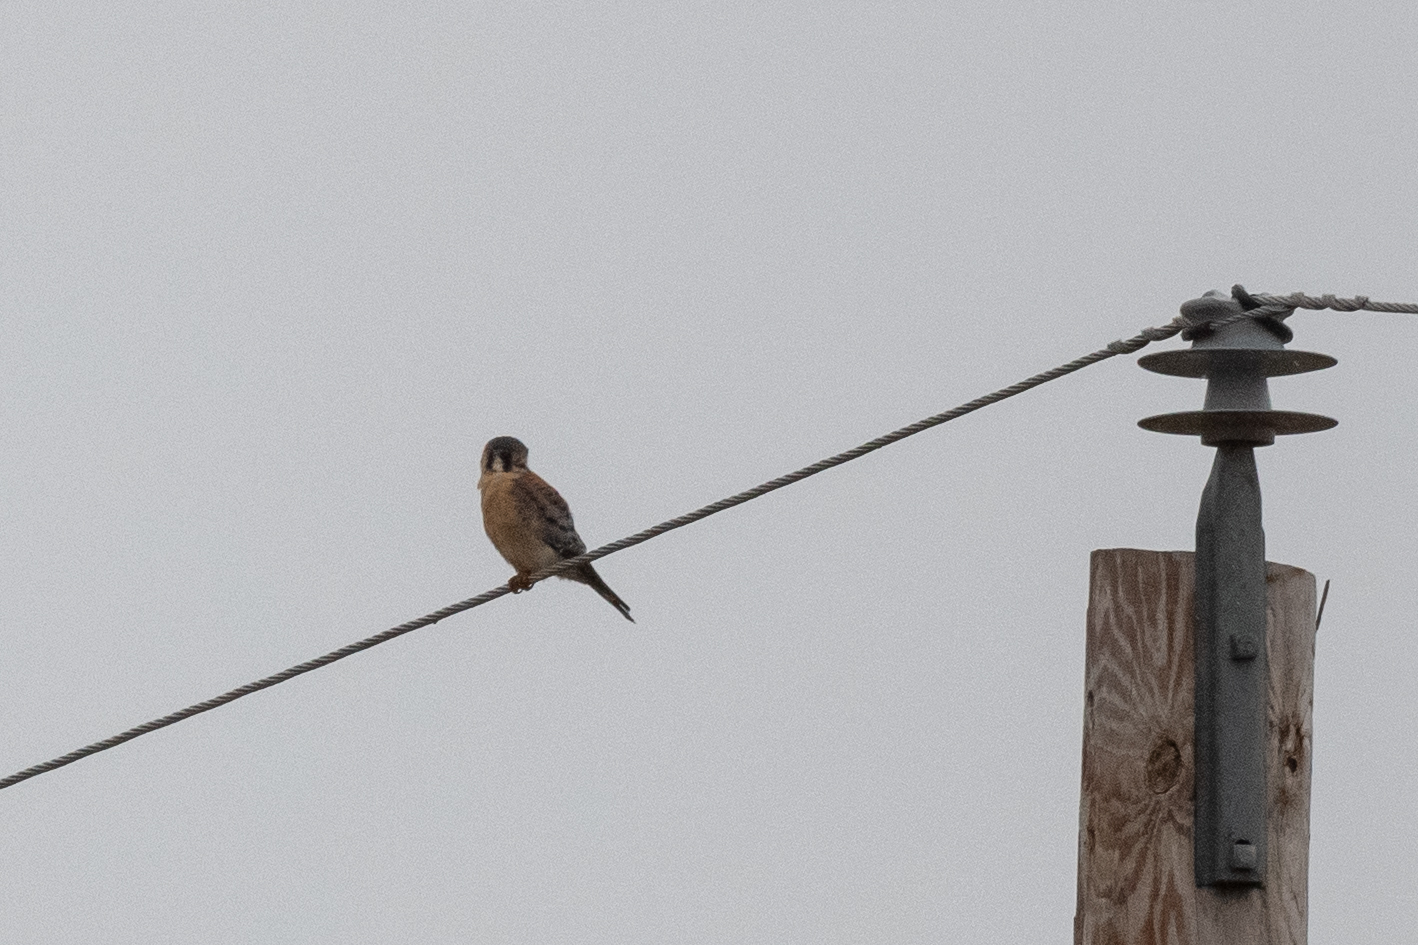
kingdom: Animalia
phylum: Chordata
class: Aves
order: Falconiformes
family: Falconidae
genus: Falco
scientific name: Falco sparverius
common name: American kestrel
